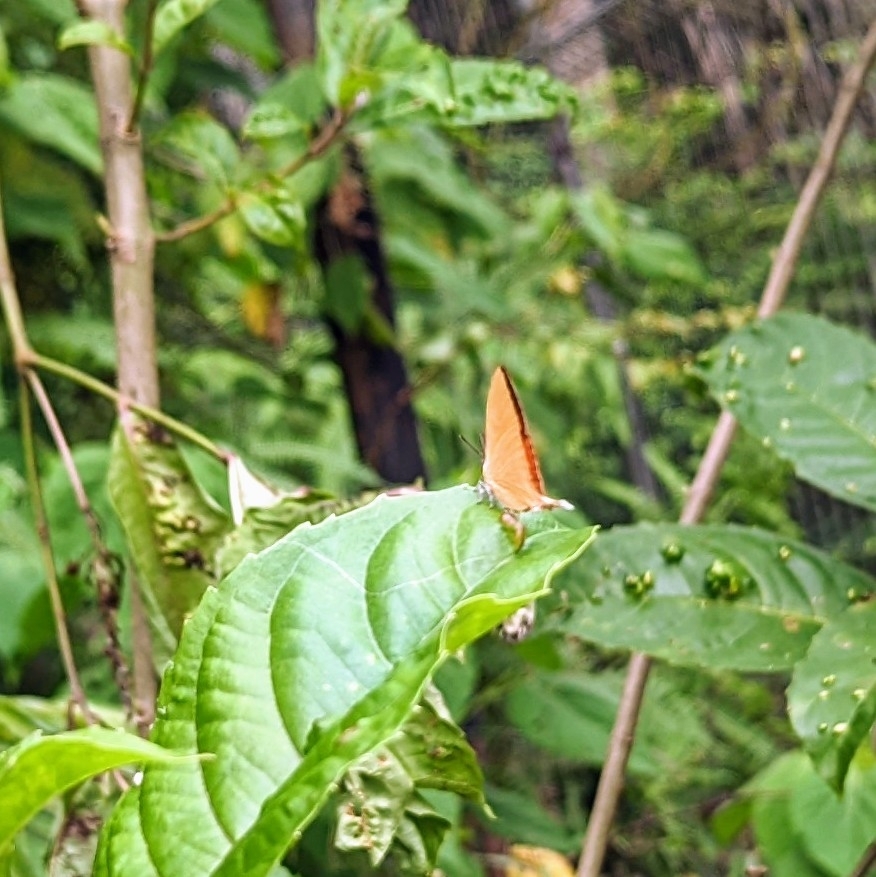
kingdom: Animalia
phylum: Arthropoda
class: Insecta
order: Lepidoptera
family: Lycaenidae
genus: Loxura
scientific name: Loxura atymnus
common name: Common yamfly
